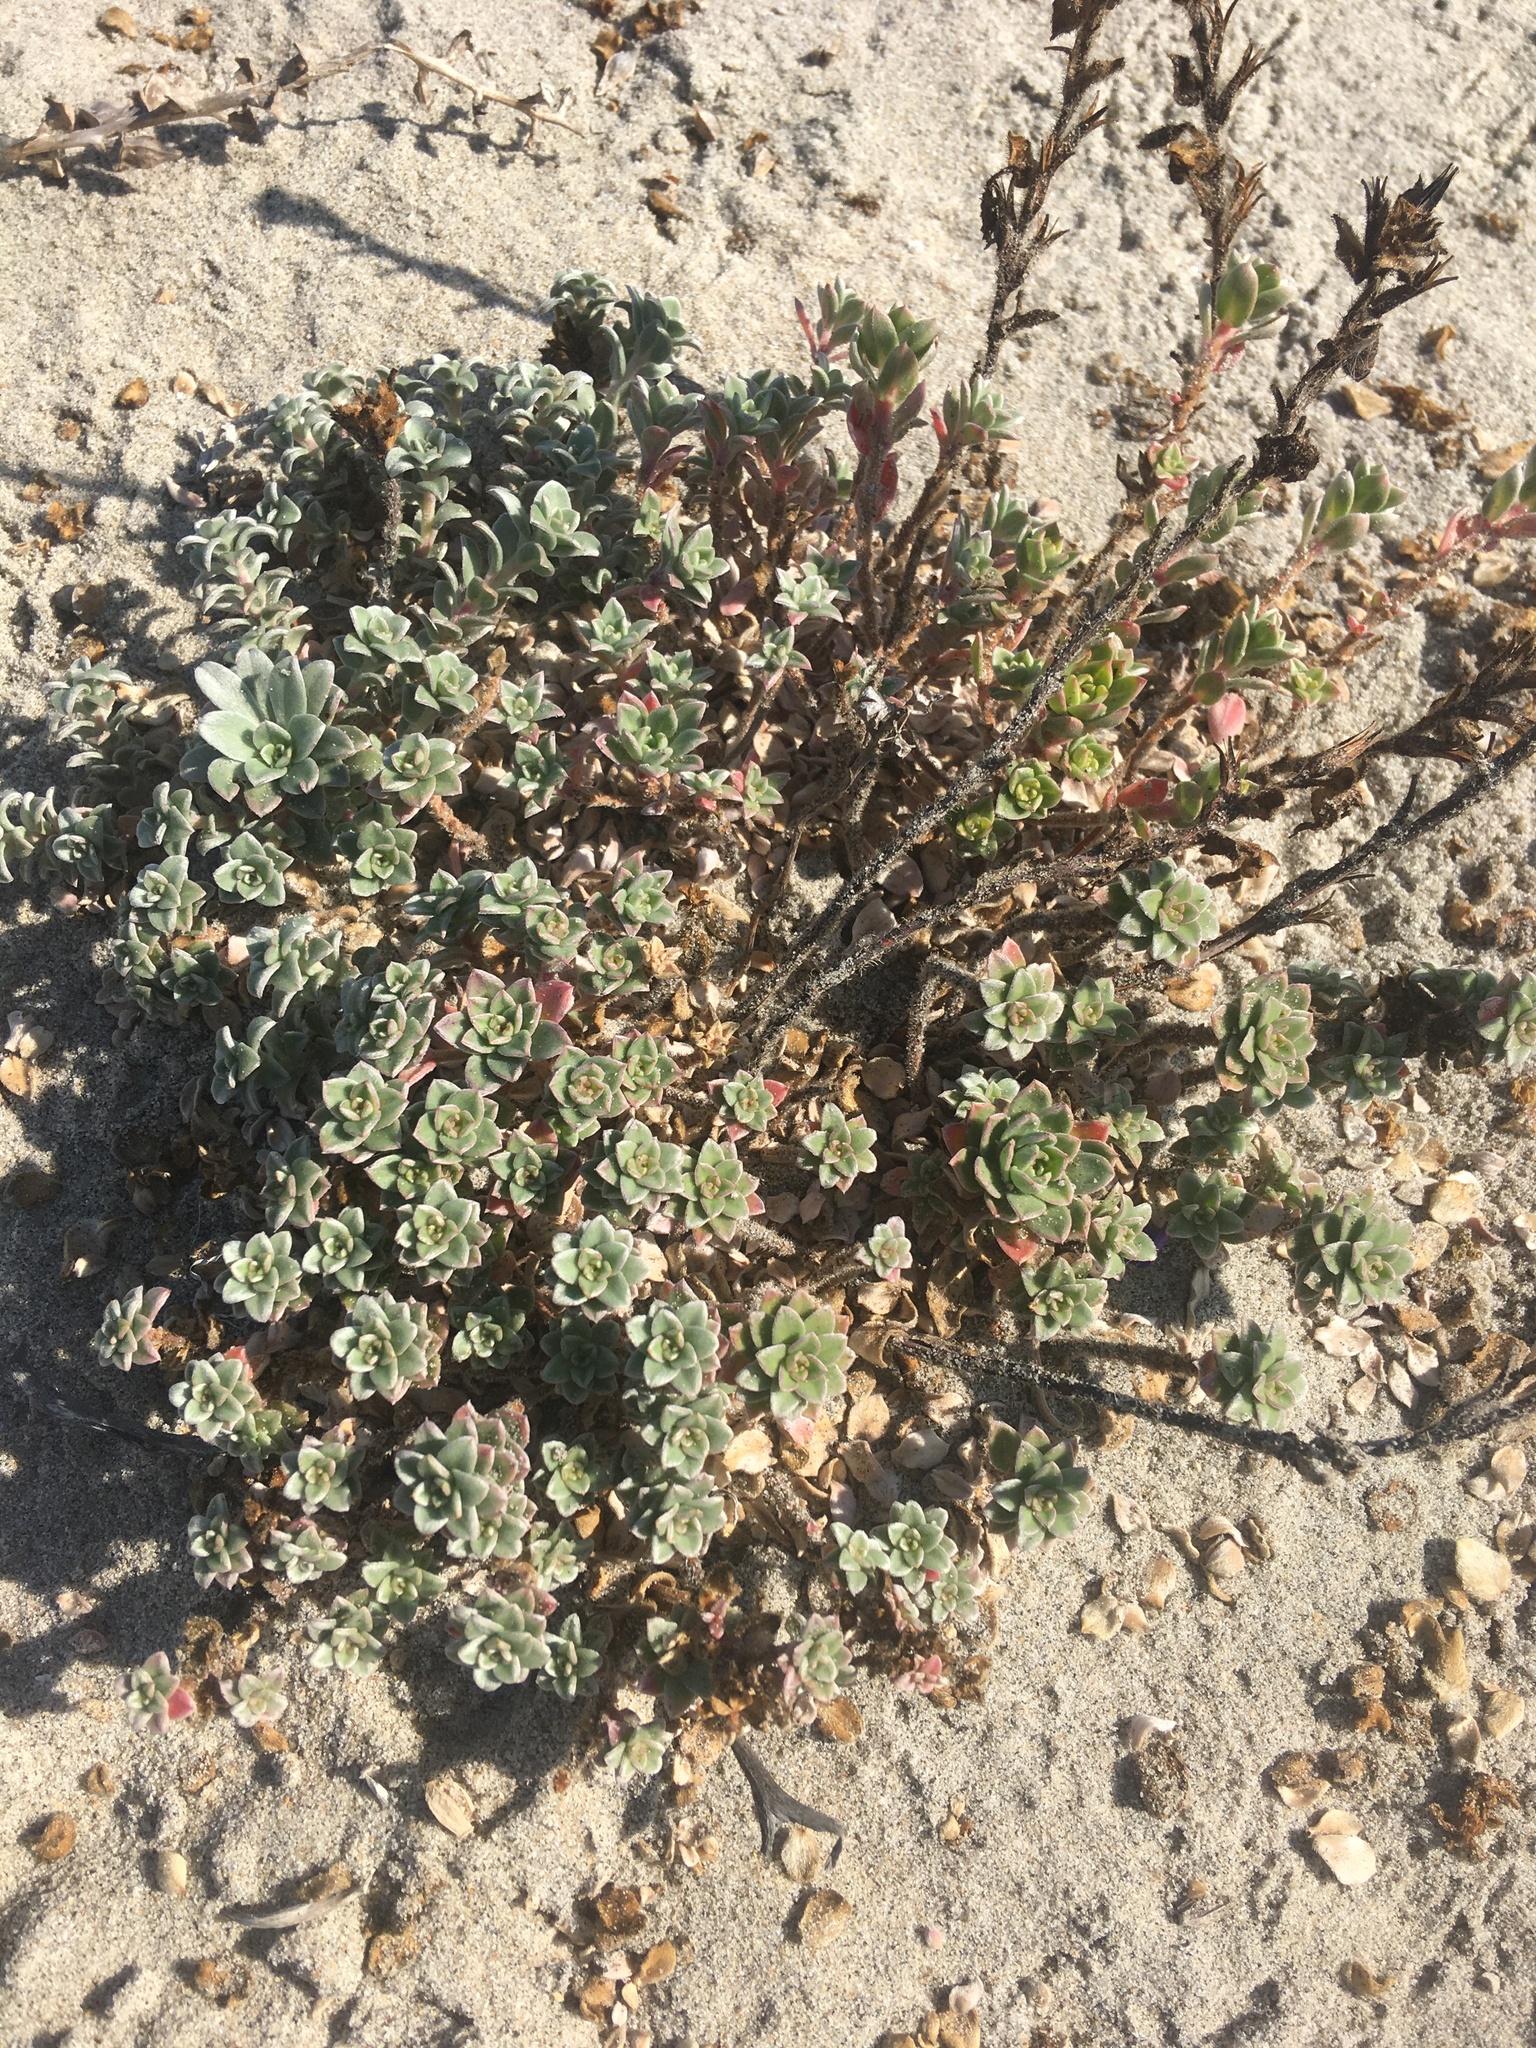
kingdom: Plantae
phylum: Tracheophyta
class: Magnoliopsida
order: Myrtales
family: Onagraceae
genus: Camissoniopsis
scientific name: Camissoniopsis cheiranthifolia
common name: Beach suncup
